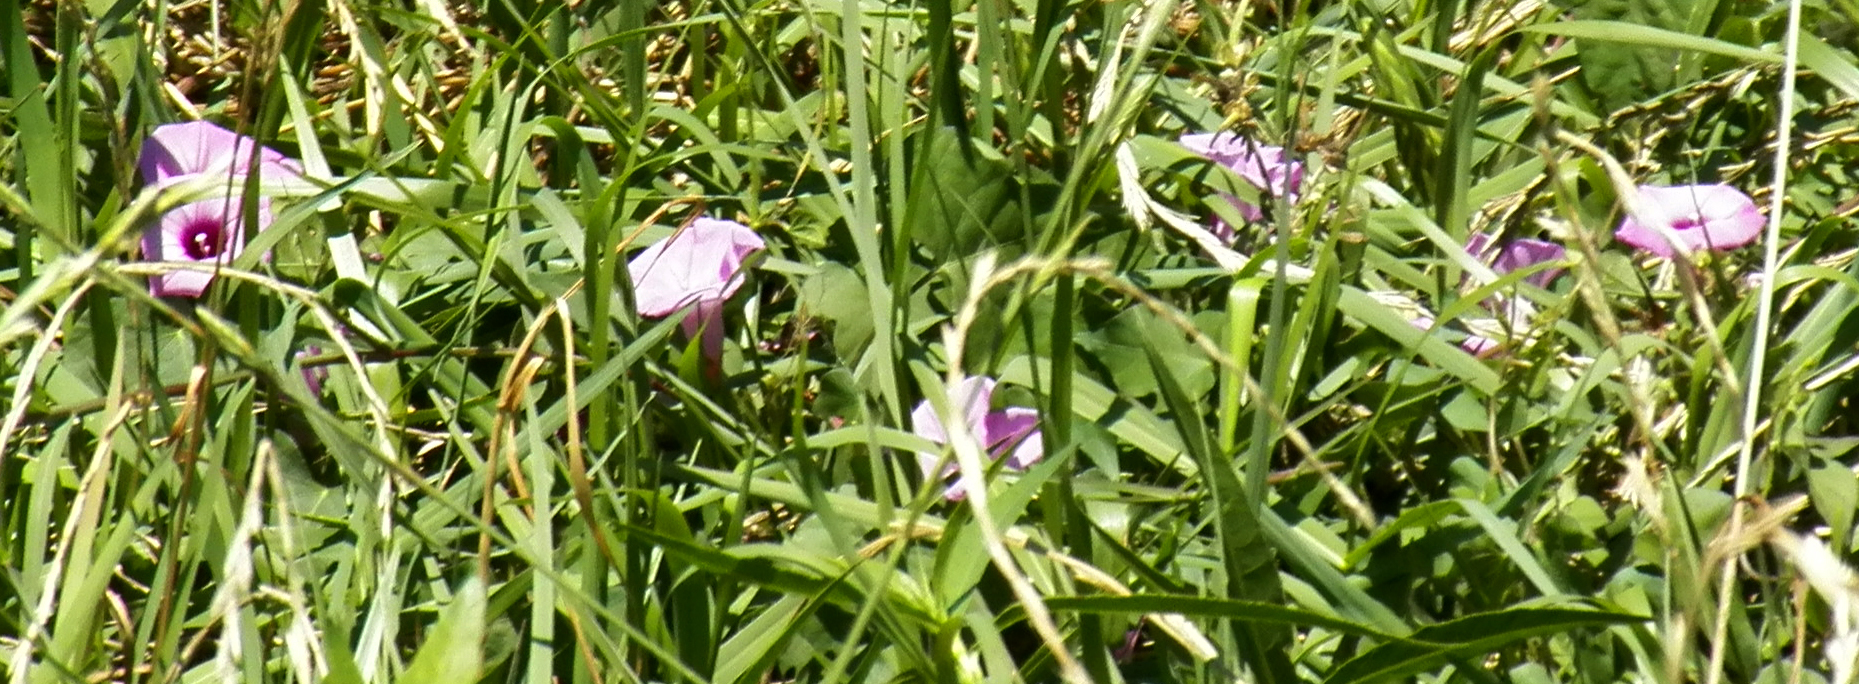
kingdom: Plantae
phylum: Tracheophyta
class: Magnoliopsida
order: Solanales
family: Convolvulaceae
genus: Ipomoea
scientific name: Ipomoea cordatotriloba
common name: Cotton morning glory
